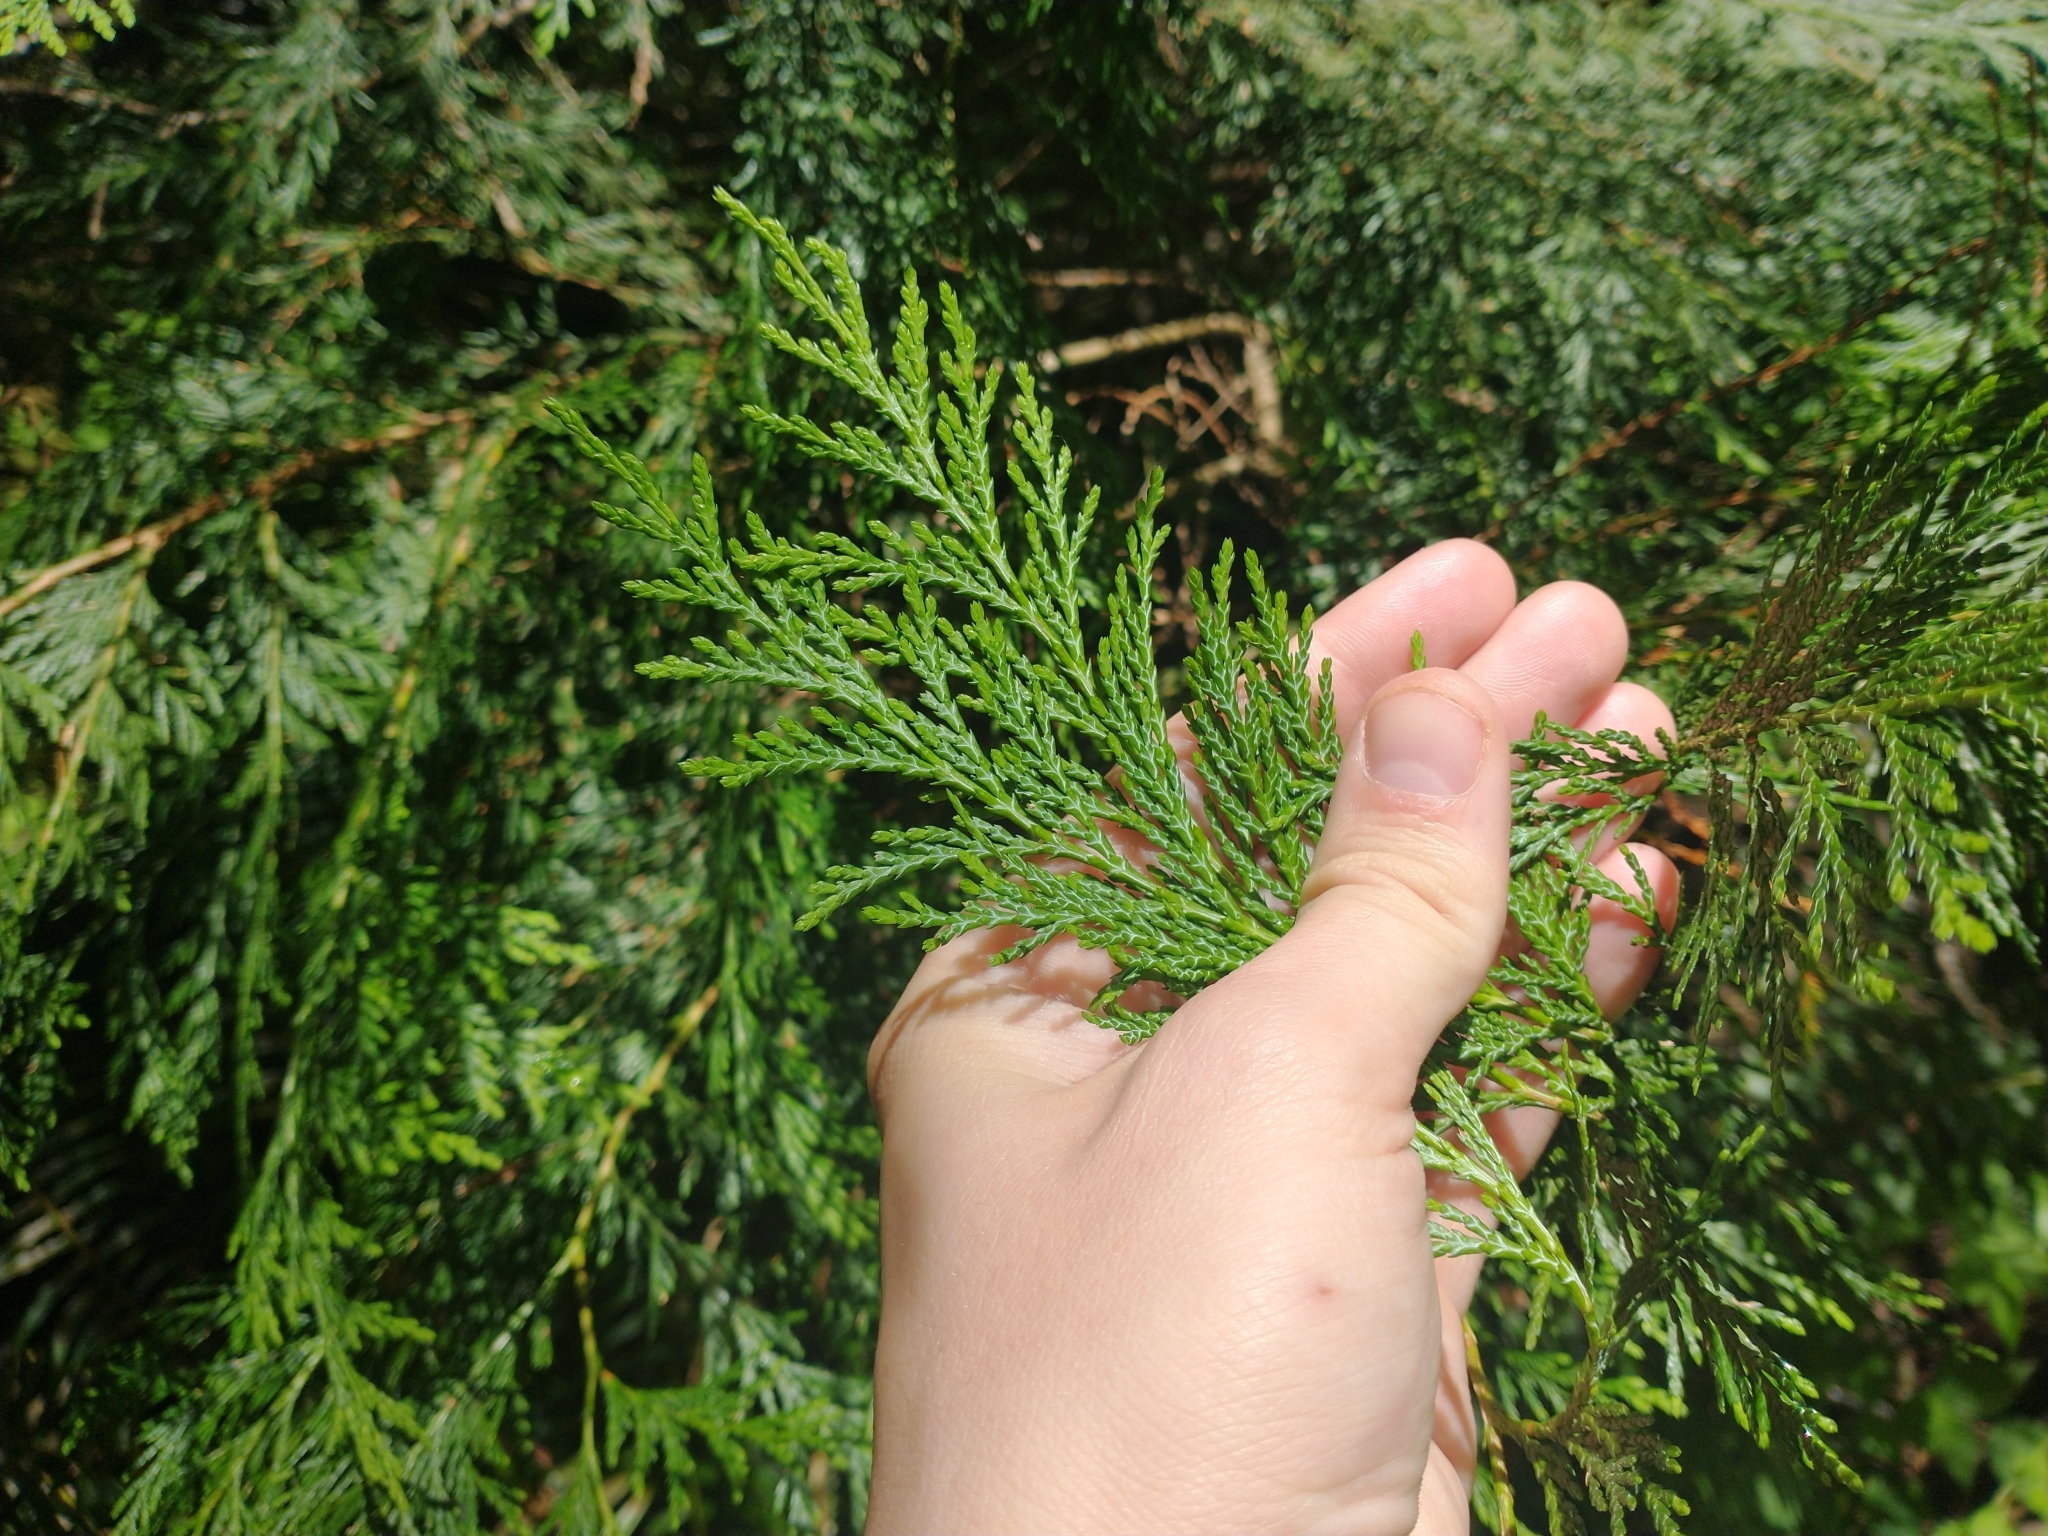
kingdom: Plantae
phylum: Tracheophyta
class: Pinopsida
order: Pinales
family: Cupressaceae
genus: Chamaecyparis
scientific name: Chamaecyparis lawsoniana
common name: Lawson's cypress
